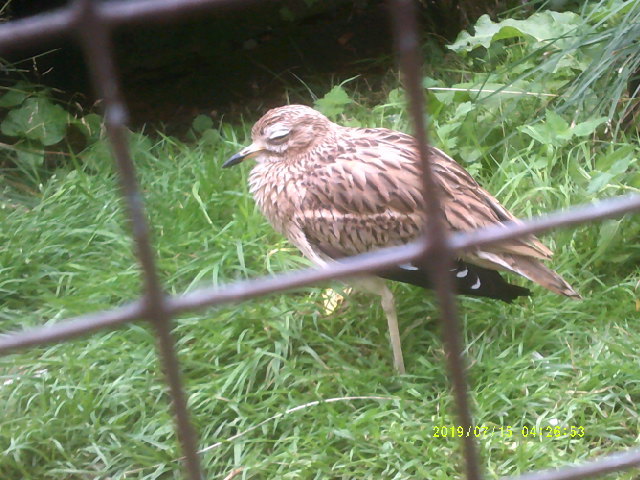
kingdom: Animalia
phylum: Chordata
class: Aves
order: Charadriiformes
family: Burhinidae
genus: Burhinus
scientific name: Burhinus oedicnemus
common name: Eurasian stone-curlew
